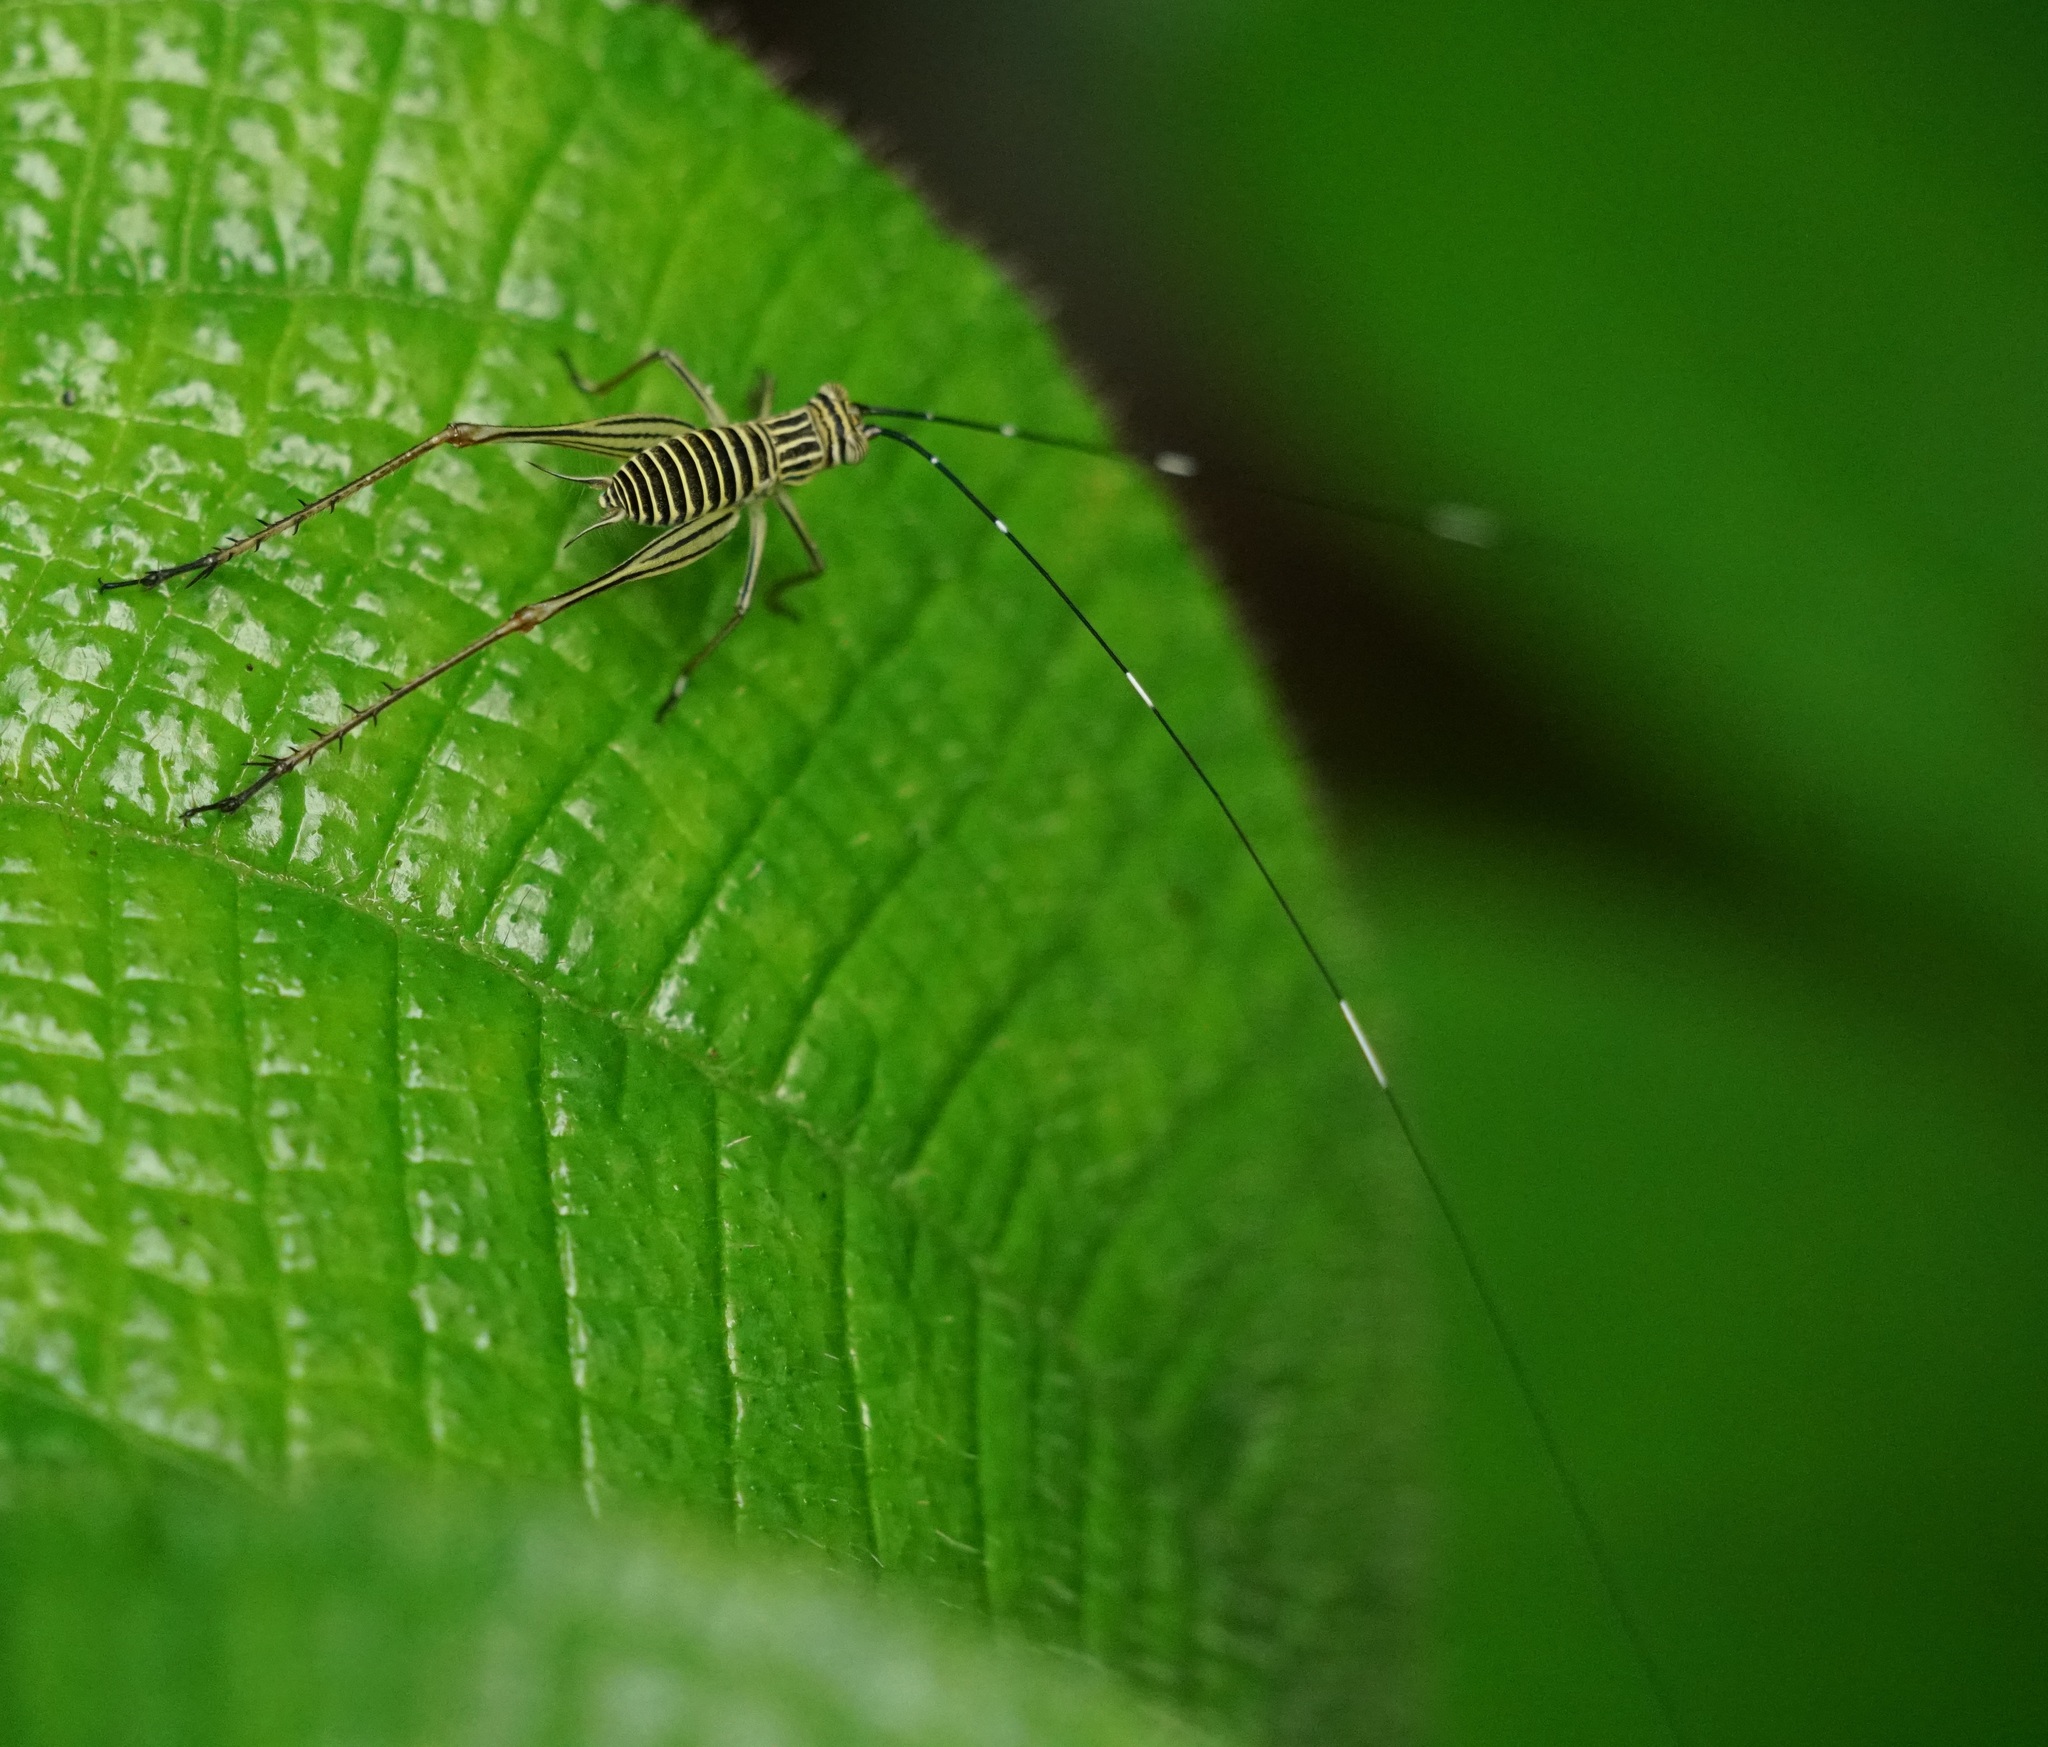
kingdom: Animalia
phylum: Arthropoda
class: Insecta
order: Orthoptera
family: Gryllidae
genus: Nisitrus
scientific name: Nisitrus danum
